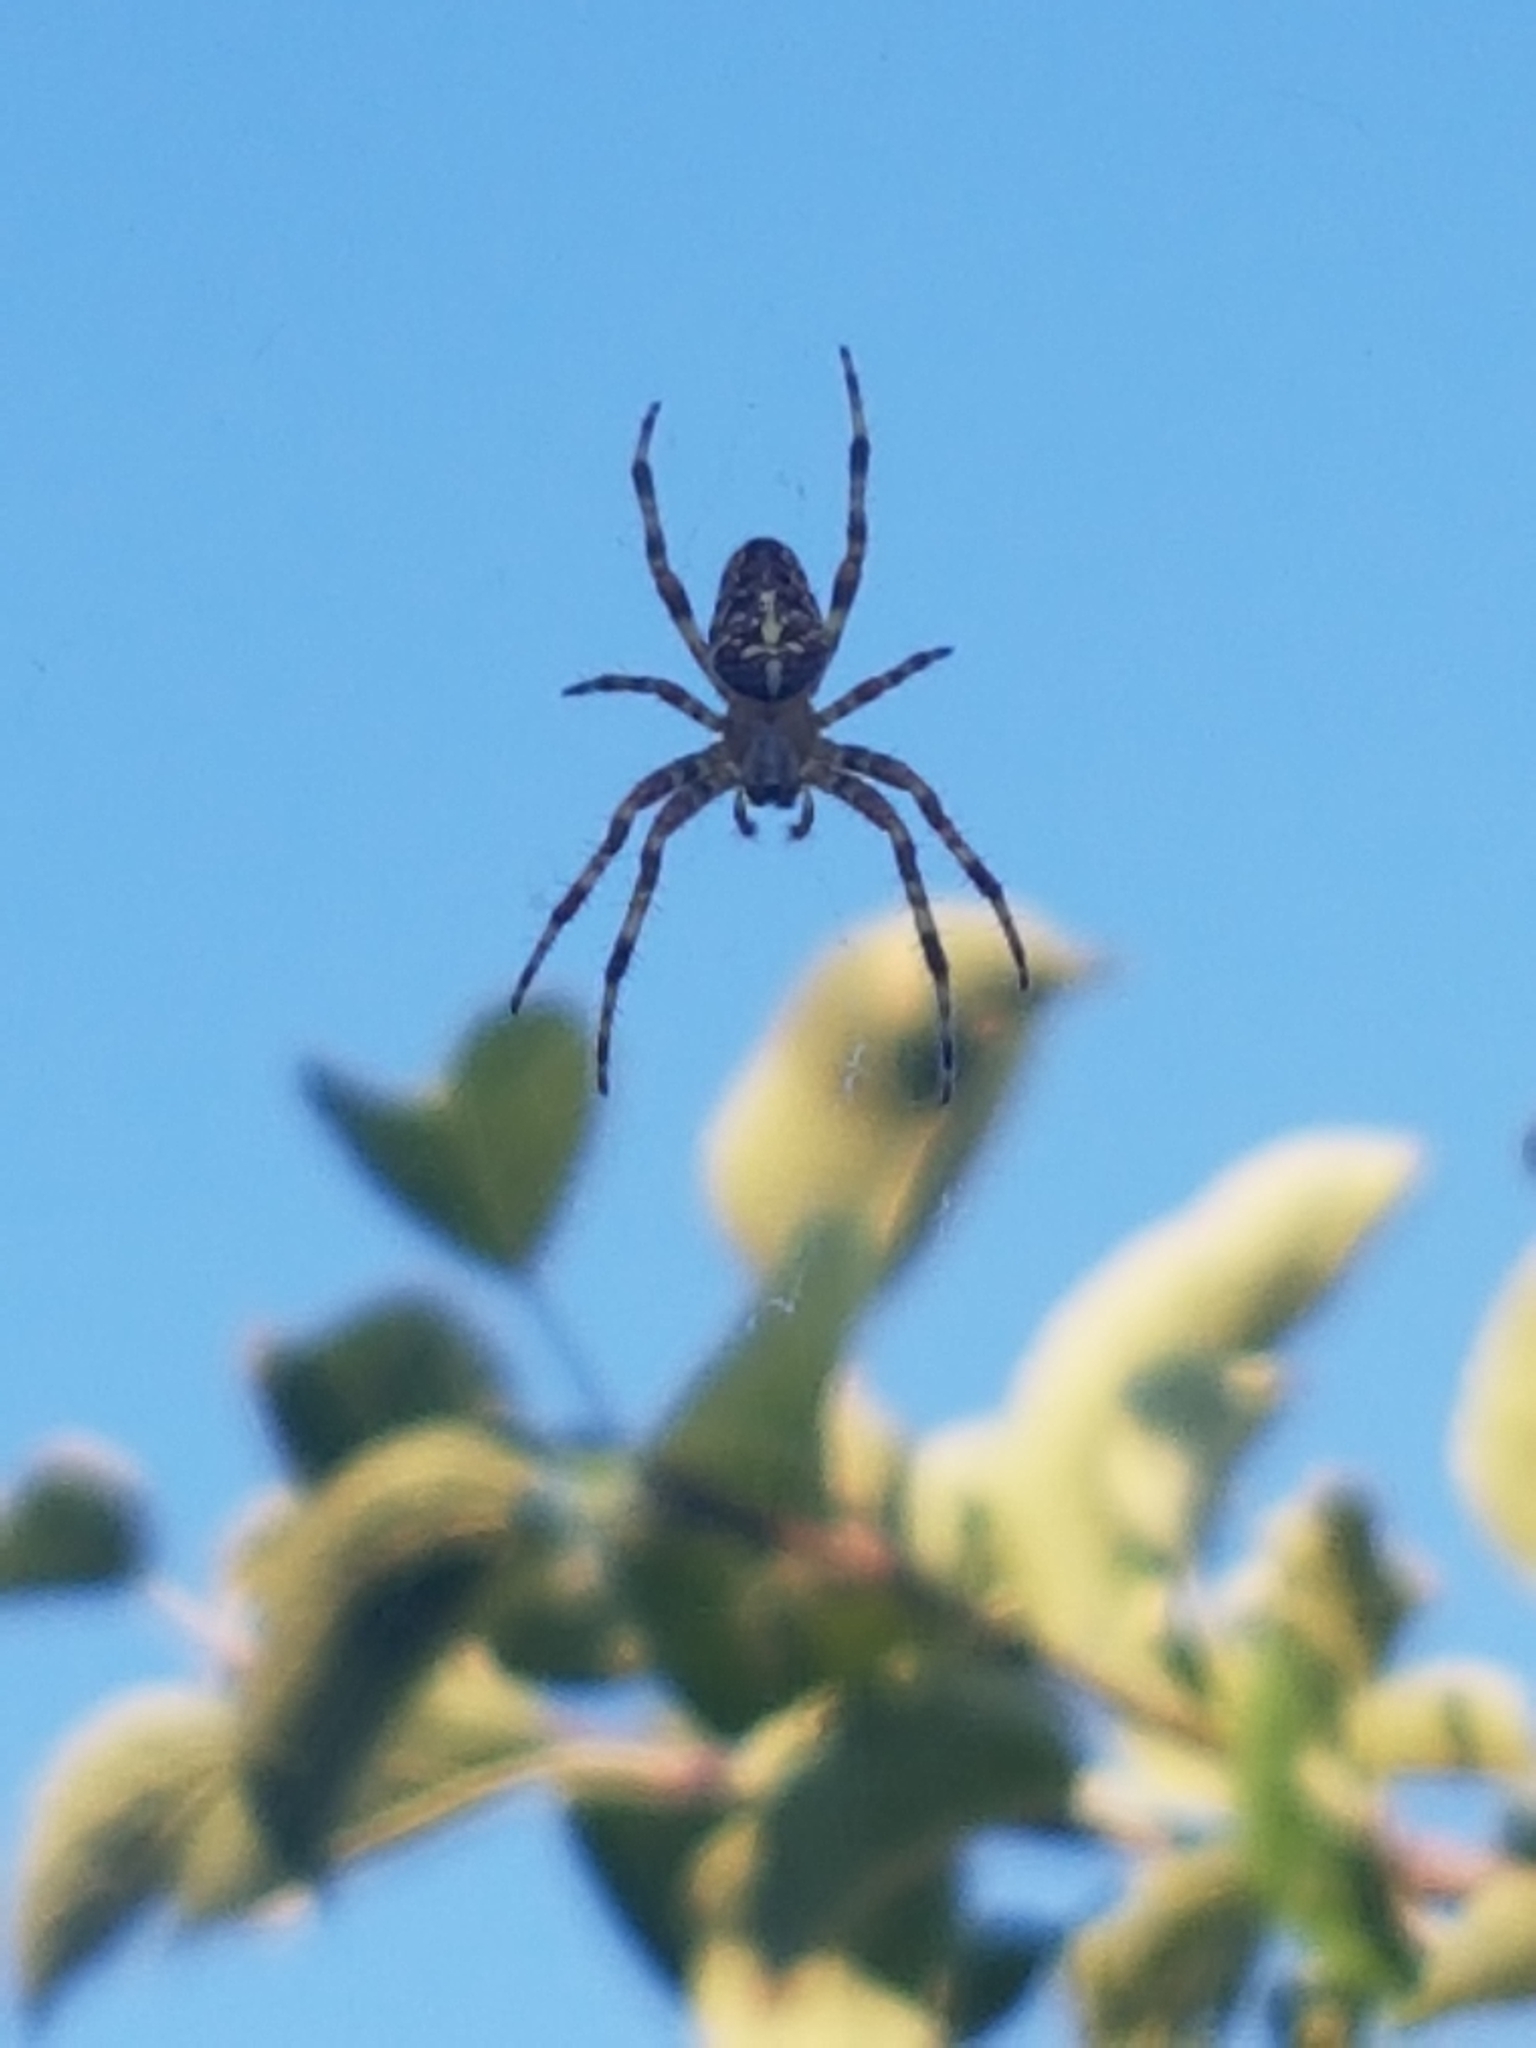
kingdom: Animalia
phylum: Arthropoda
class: Arachnida
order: Araneae
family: Araneidae
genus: Araneus
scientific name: Araneus diadematus
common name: Cross orbweaver
